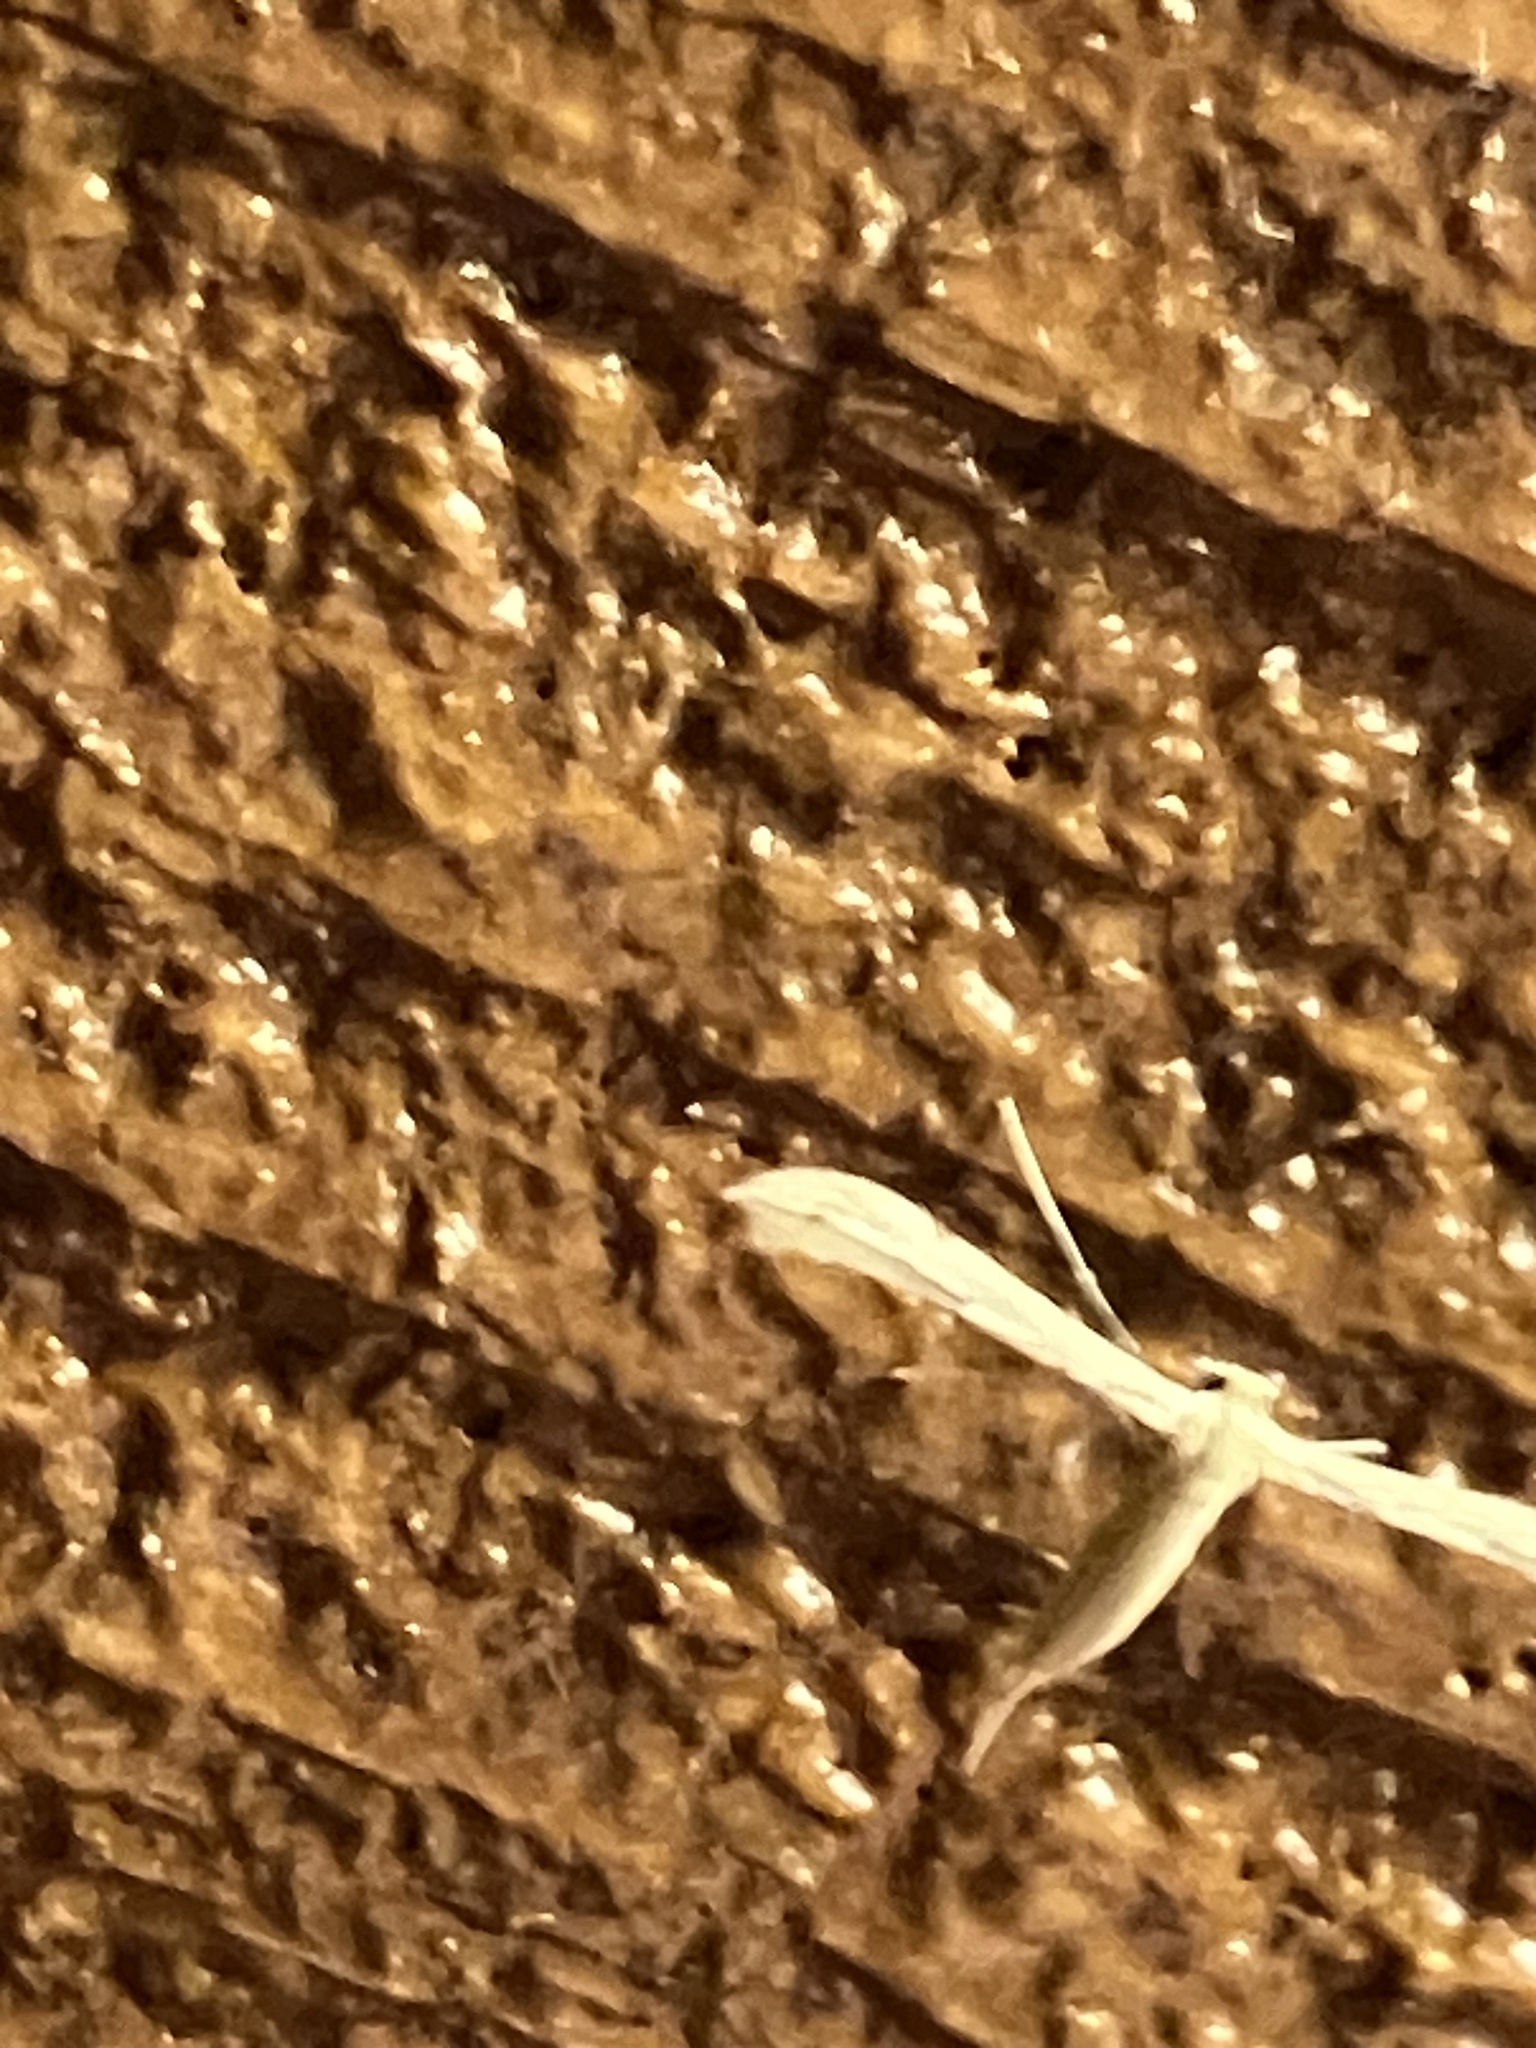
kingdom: Animalia
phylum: Arthropoda
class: Insecta
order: Lepidoptera
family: Pterophoridae
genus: Adaina
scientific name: Adaina
